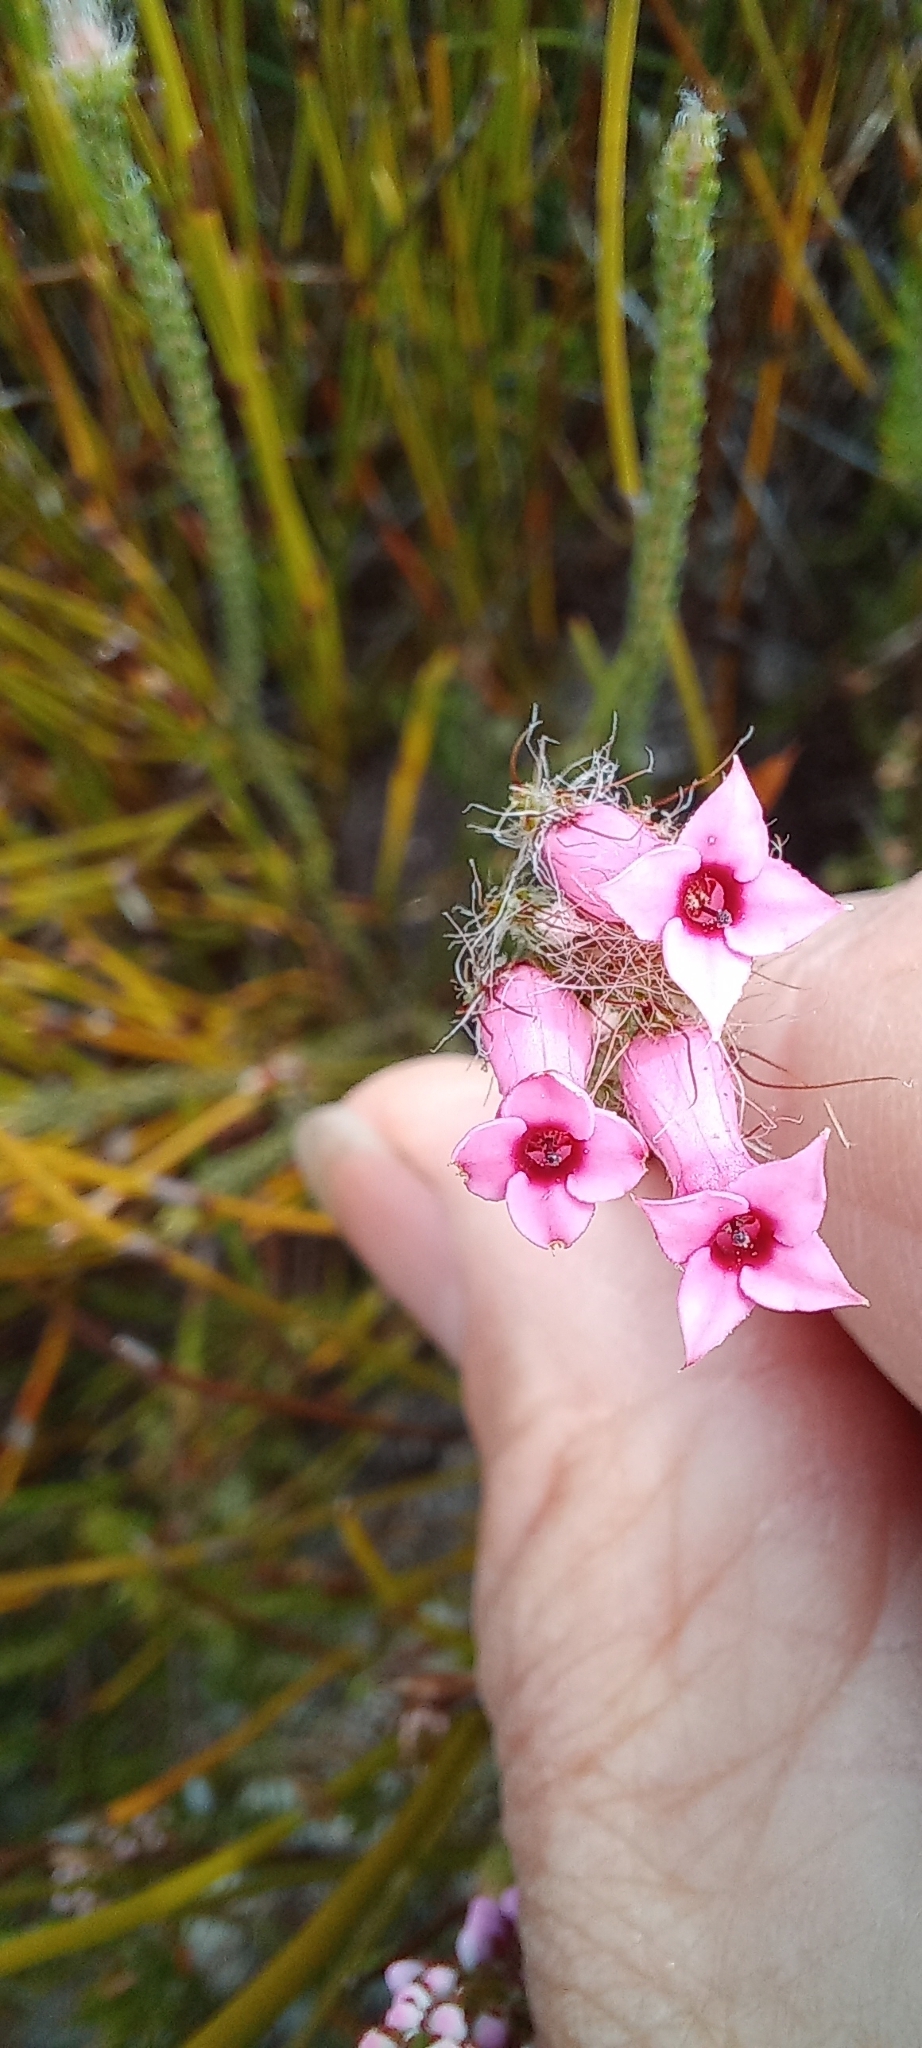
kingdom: Plantae
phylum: Tracheophyta
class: Magnoliopsida
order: Ericales
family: Ericaceae
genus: Erica
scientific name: Erica gysbertii
